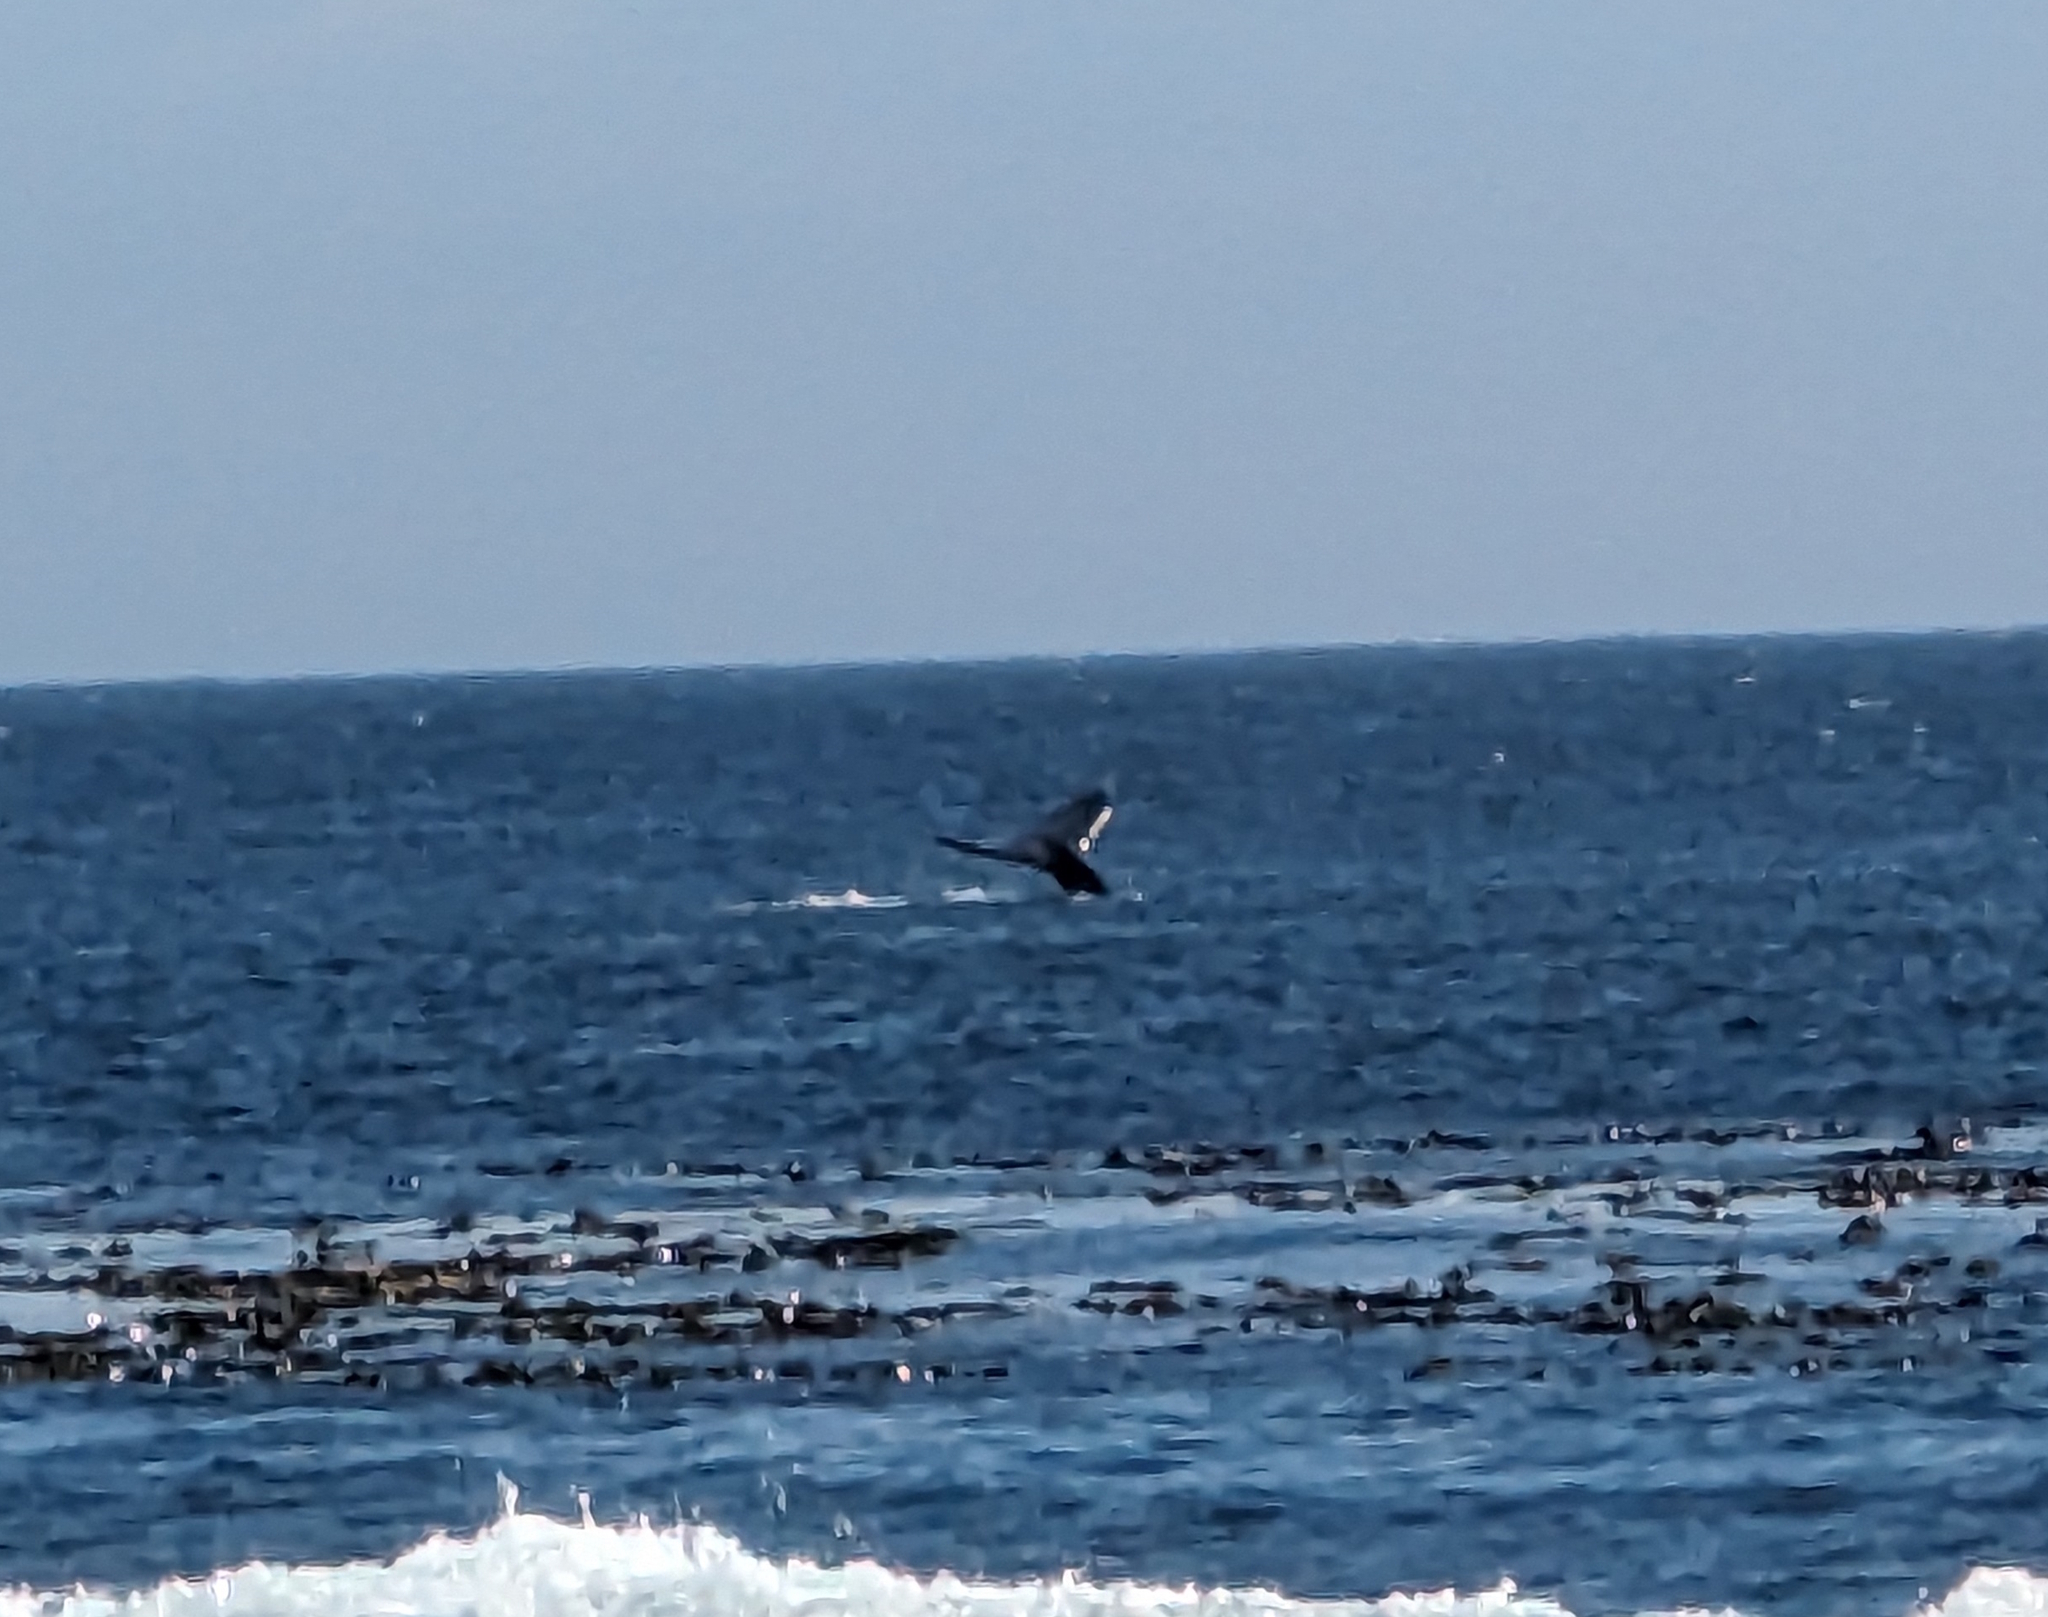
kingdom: Animalia
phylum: Chordata
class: Mammalia
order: Cetacea
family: Balaenopteridae
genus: Megaptera
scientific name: Megaptera novaeangliae
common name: Humpback whale
